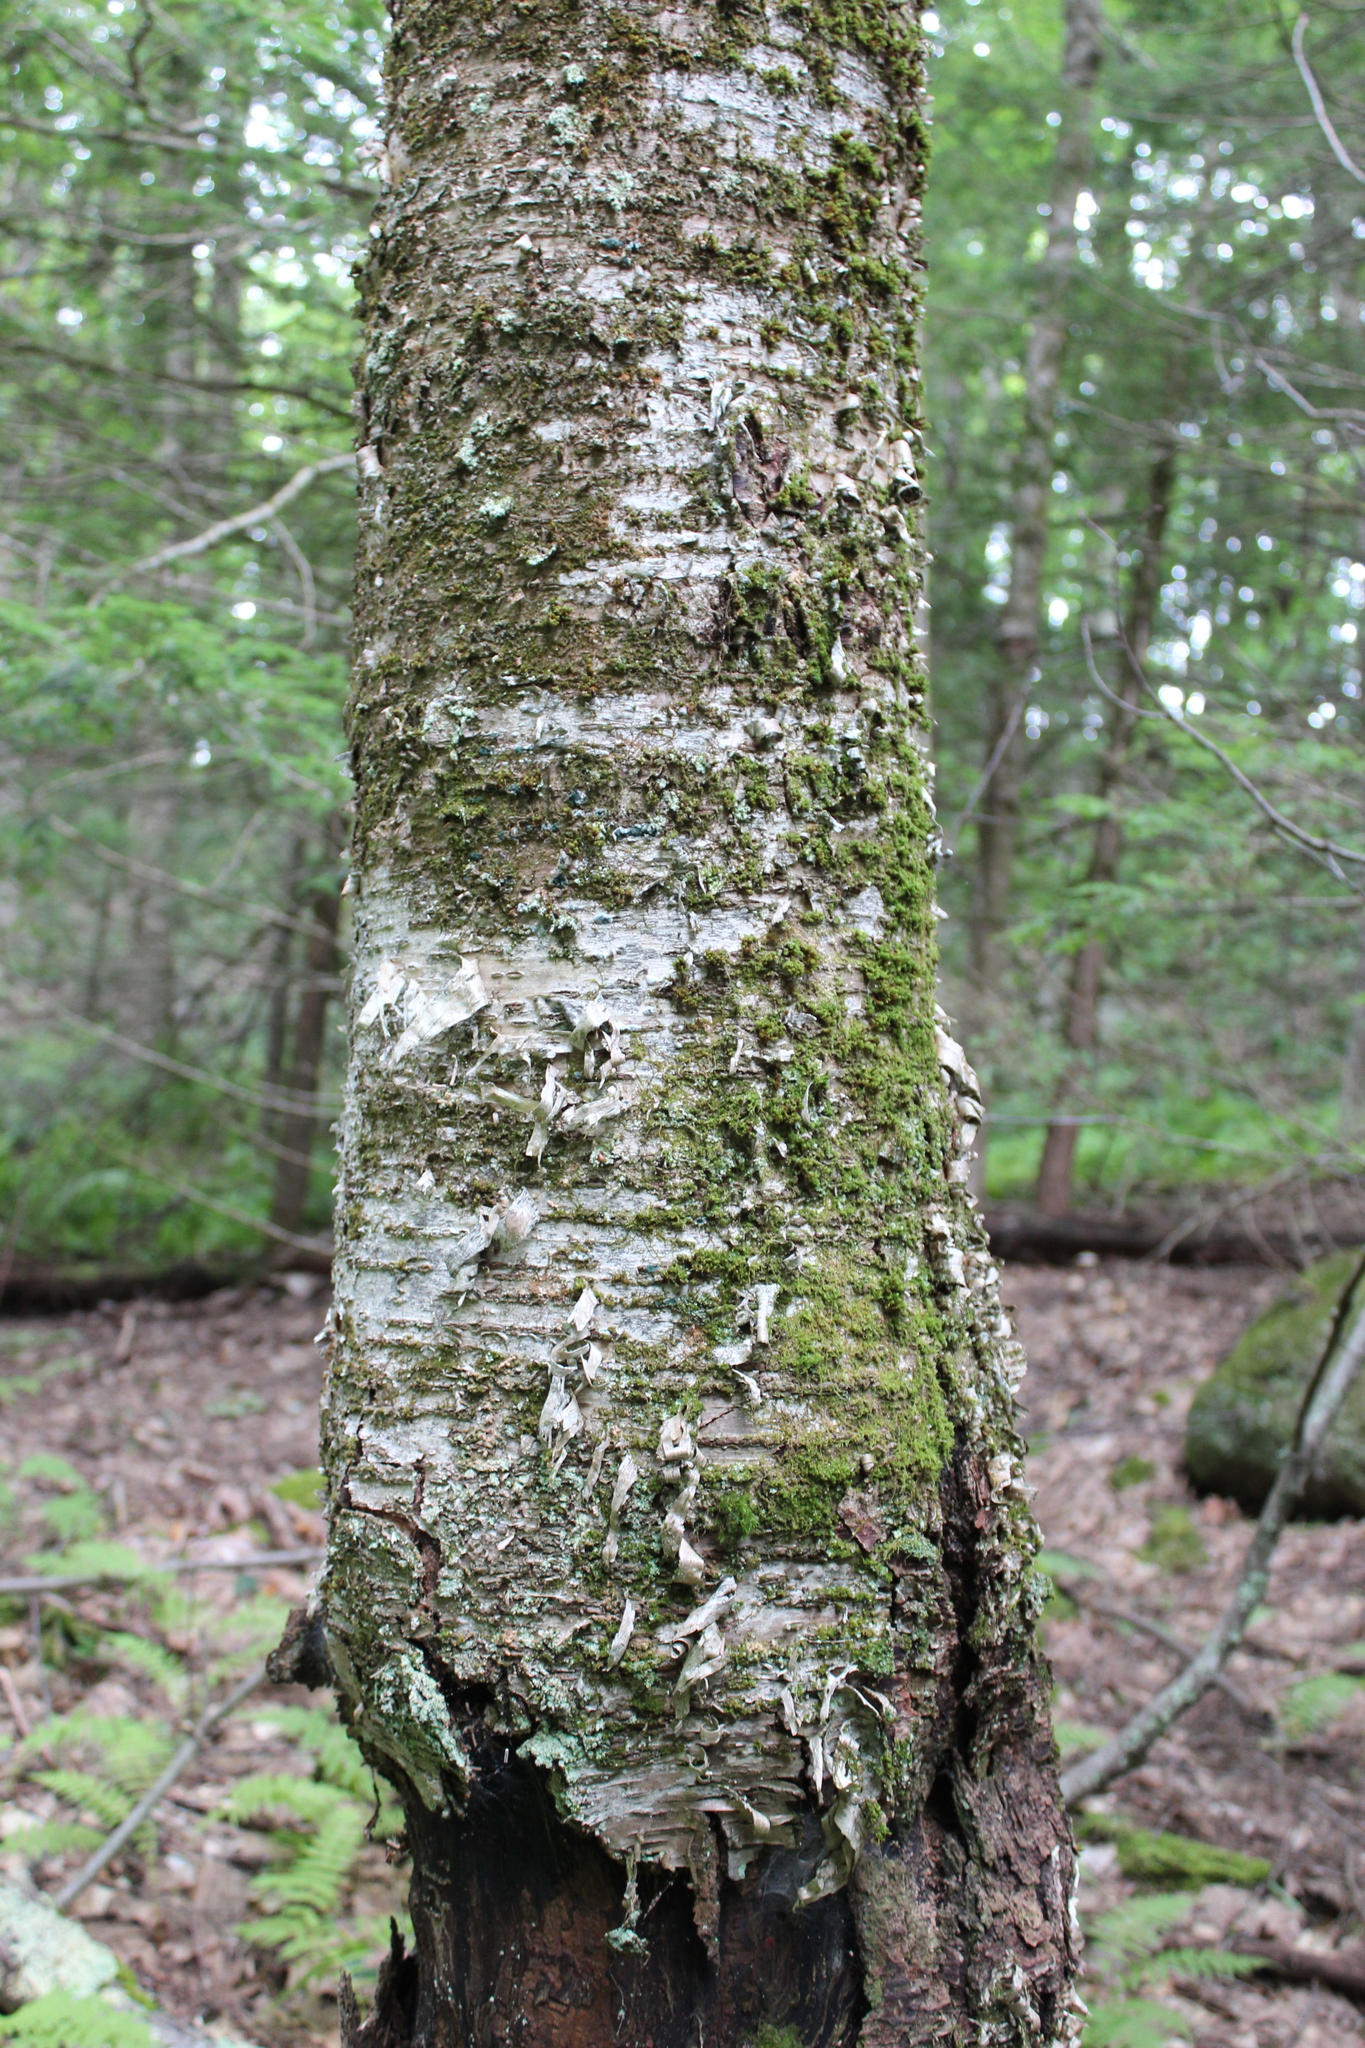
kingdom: Plantae
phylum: Tracheophyta
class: Magnoliopsida
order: Fagales
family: Betulaceae
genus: Betula
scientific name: Betula alleghaniensis
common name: Yellow birch
